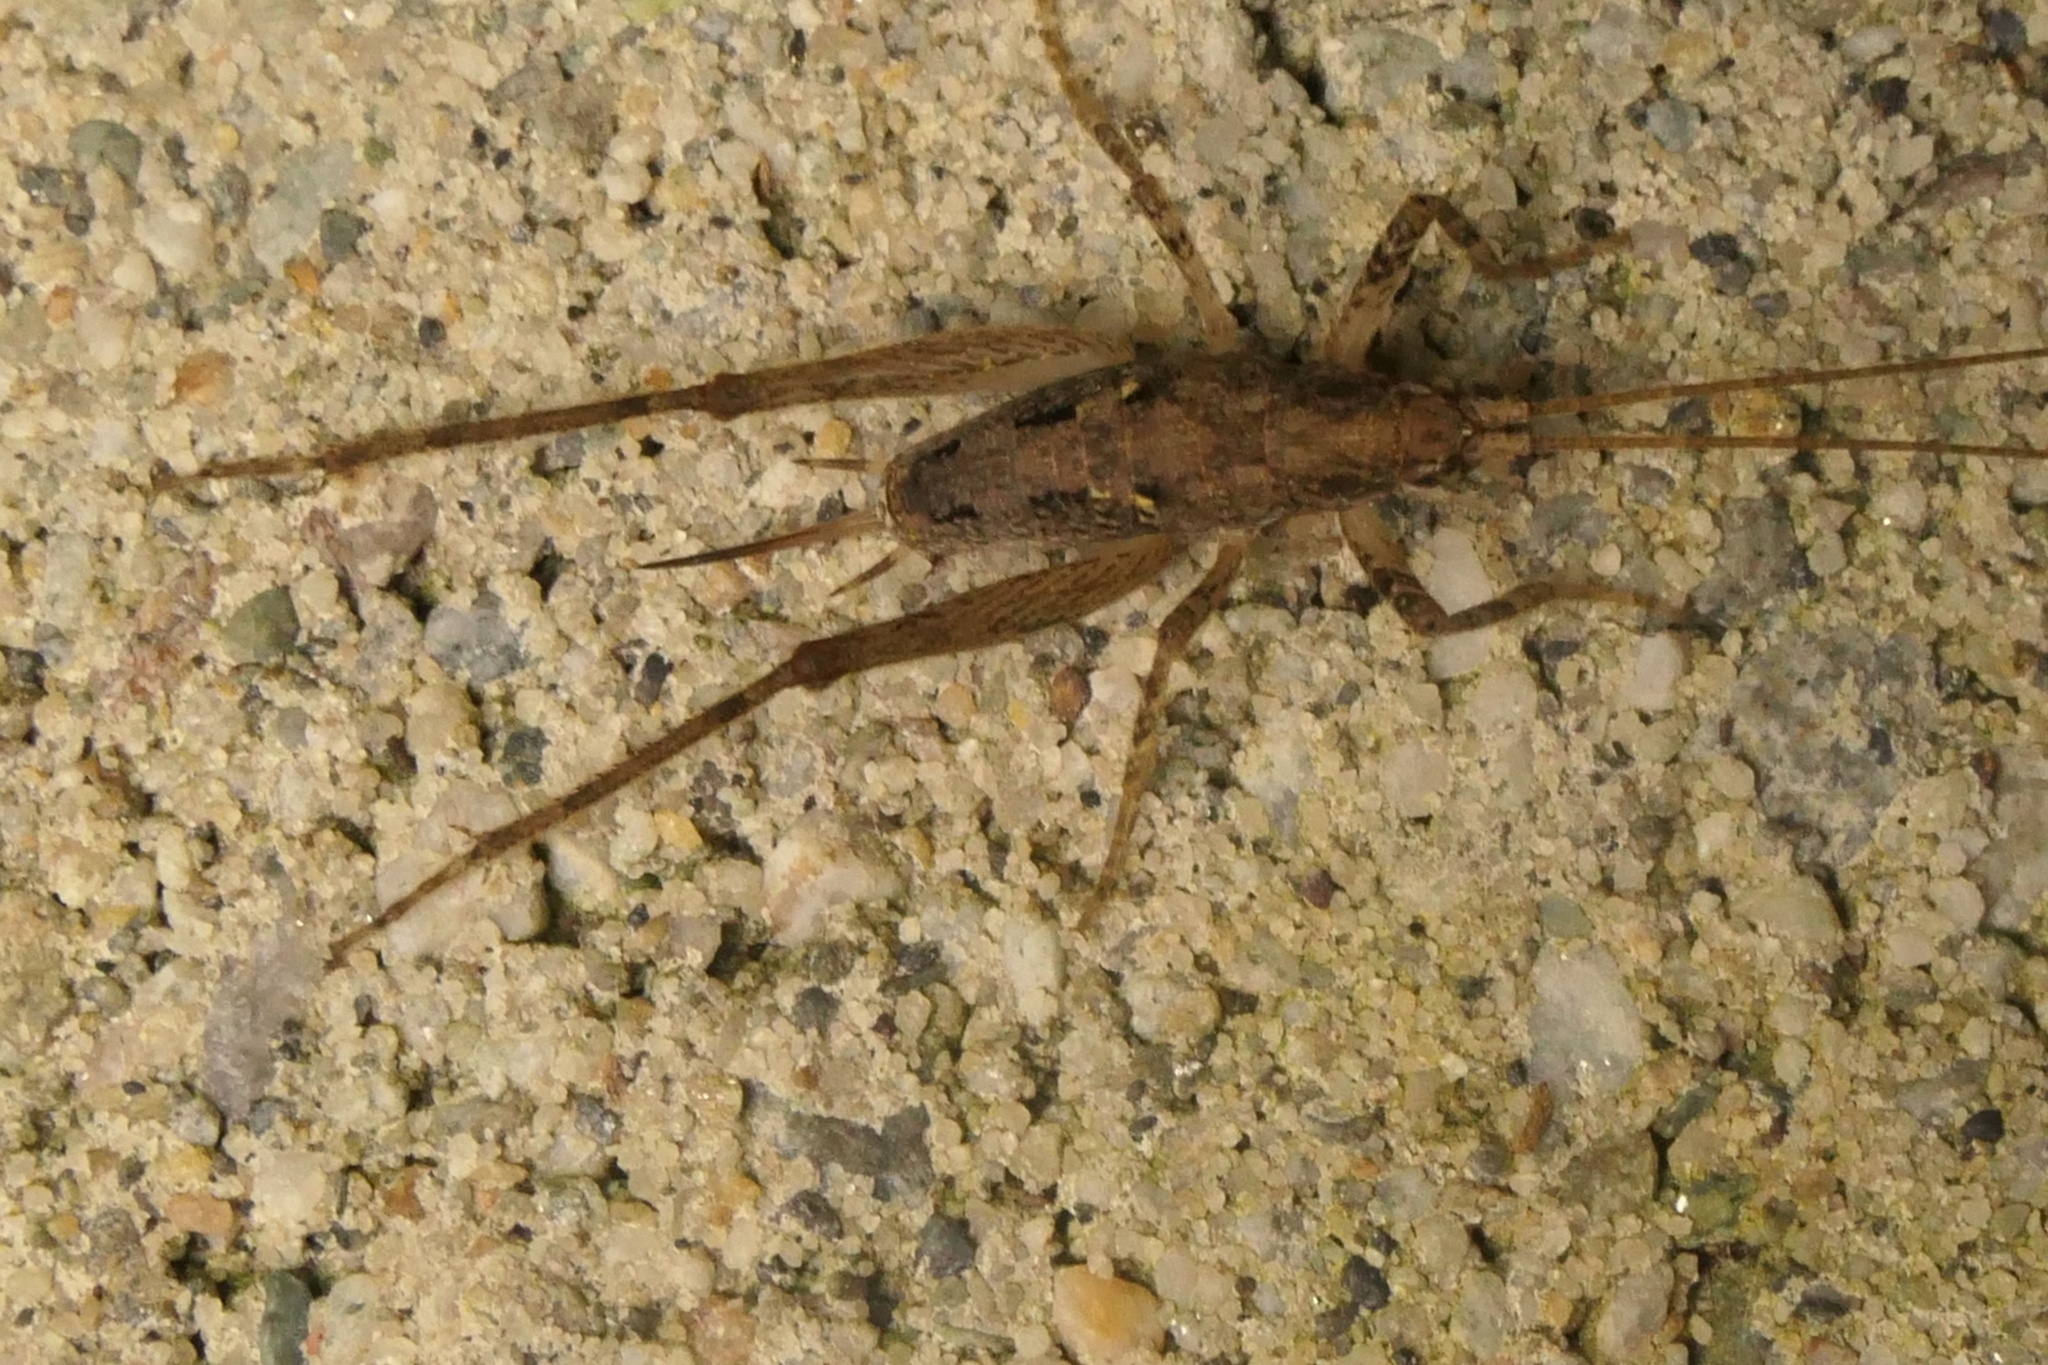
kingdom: Animalia
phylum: Arthropoda
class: Insecta
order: Orthoptera
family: Rhaphidophoridae
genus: Isoplectron
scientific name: Isoplectron armatum
